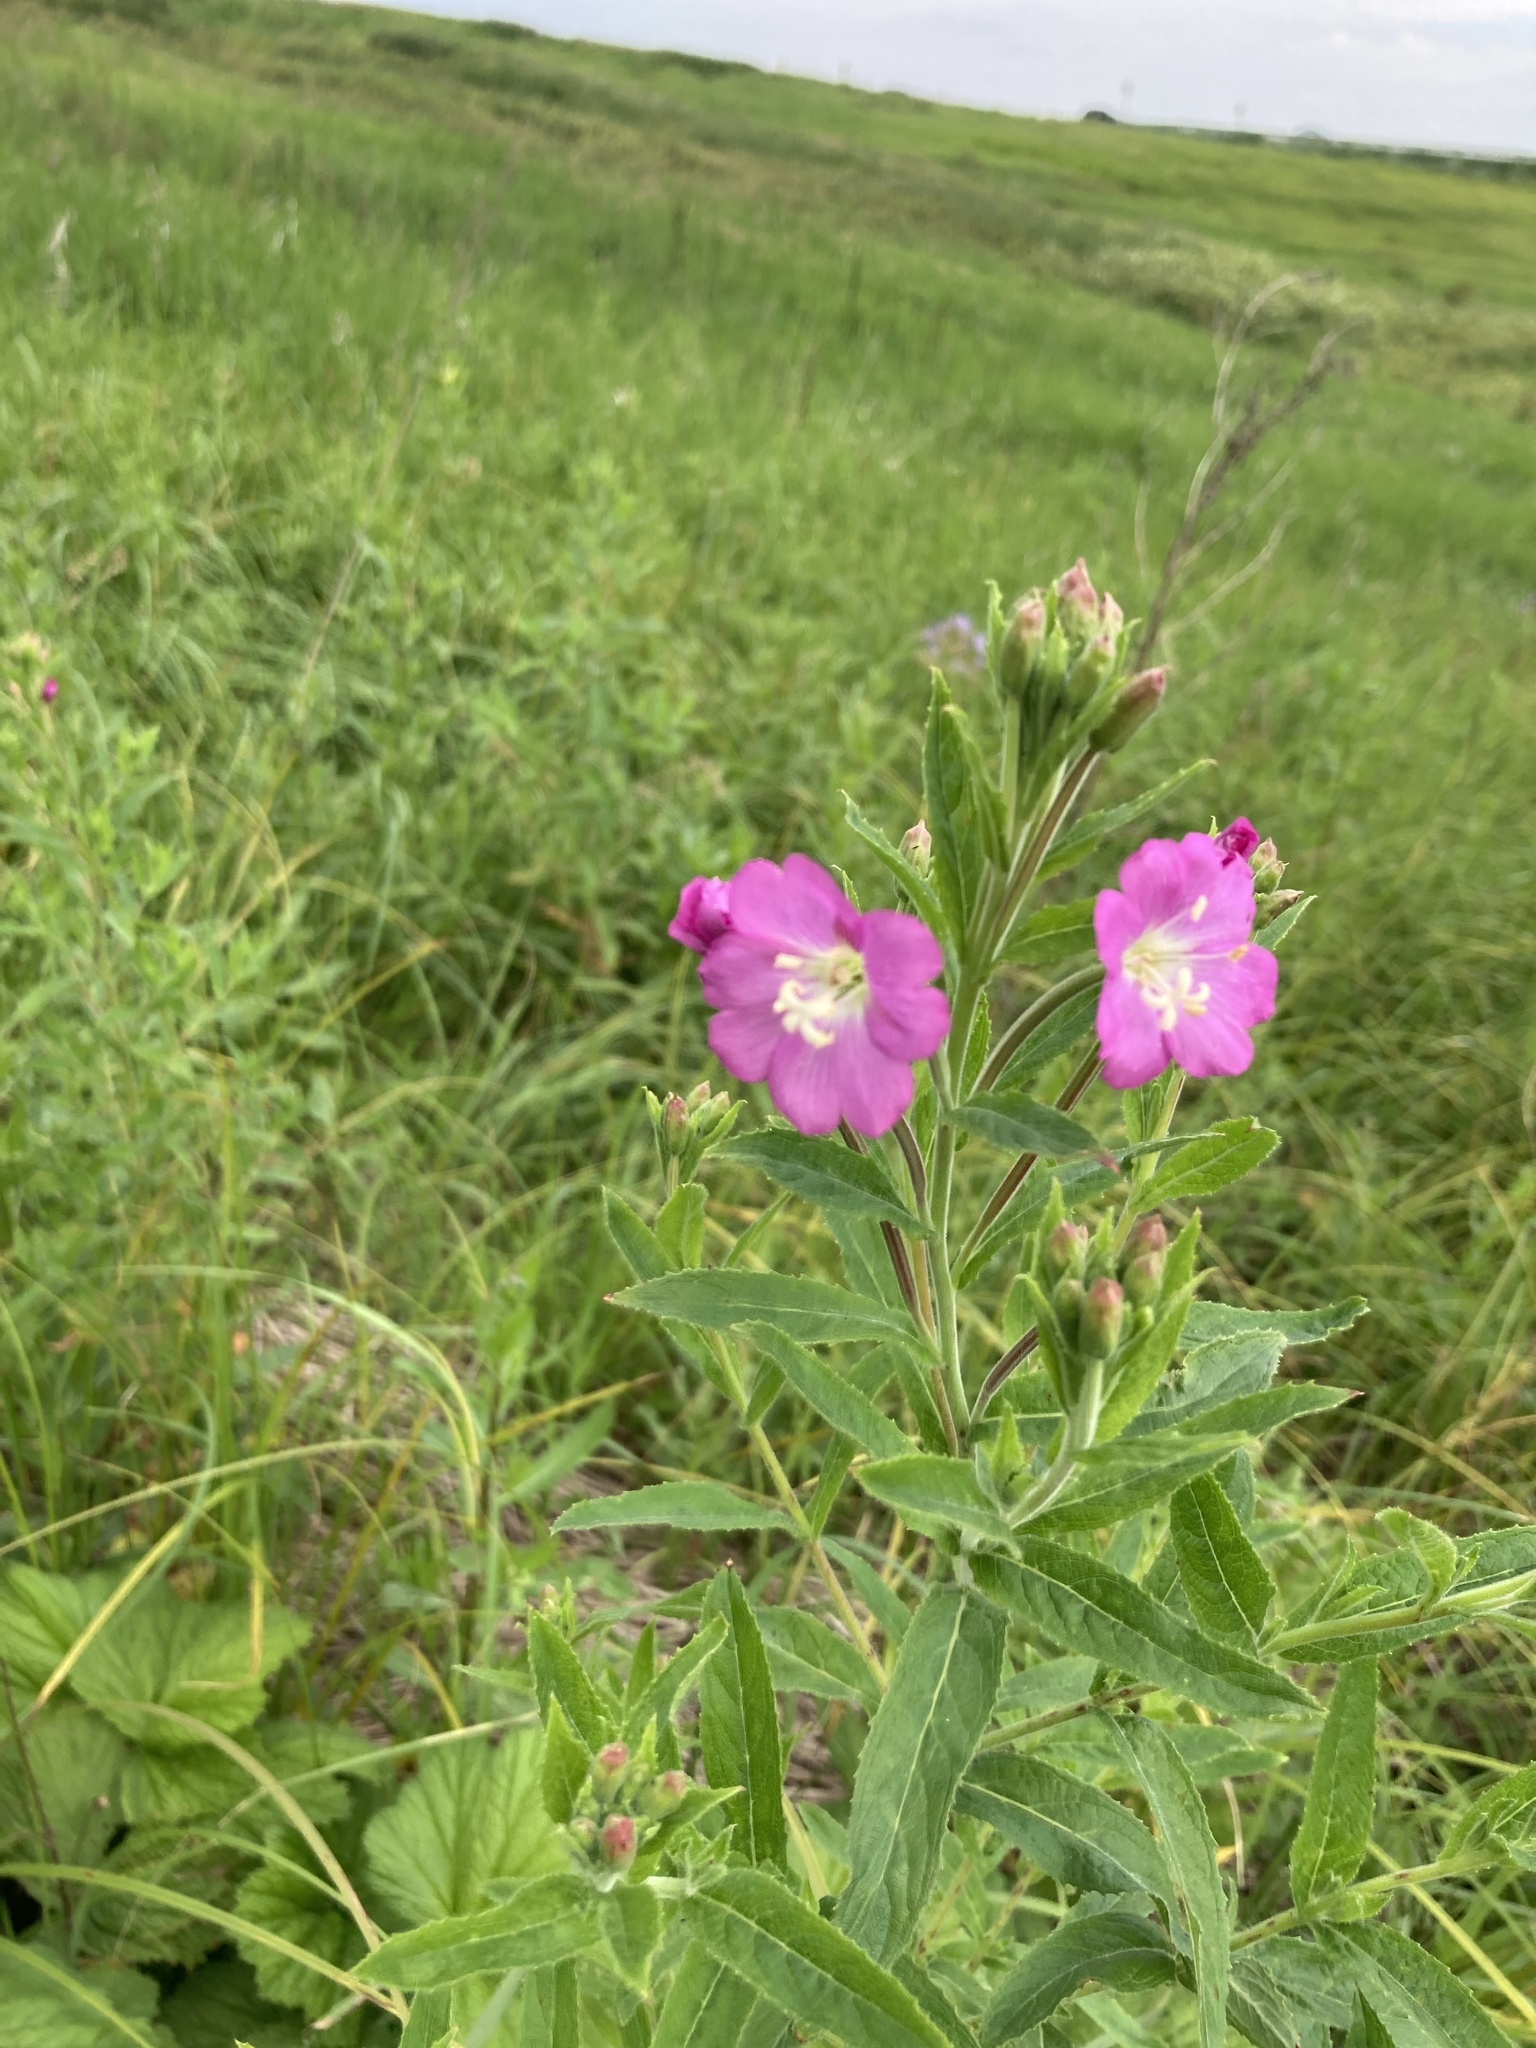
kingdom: Plantae
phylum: Tracheophyta
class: Magnoliopsida
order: Myrtales
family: Onagraceae
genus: Epilobium
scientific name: Epilobium hirsutum
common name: Great willowherb
